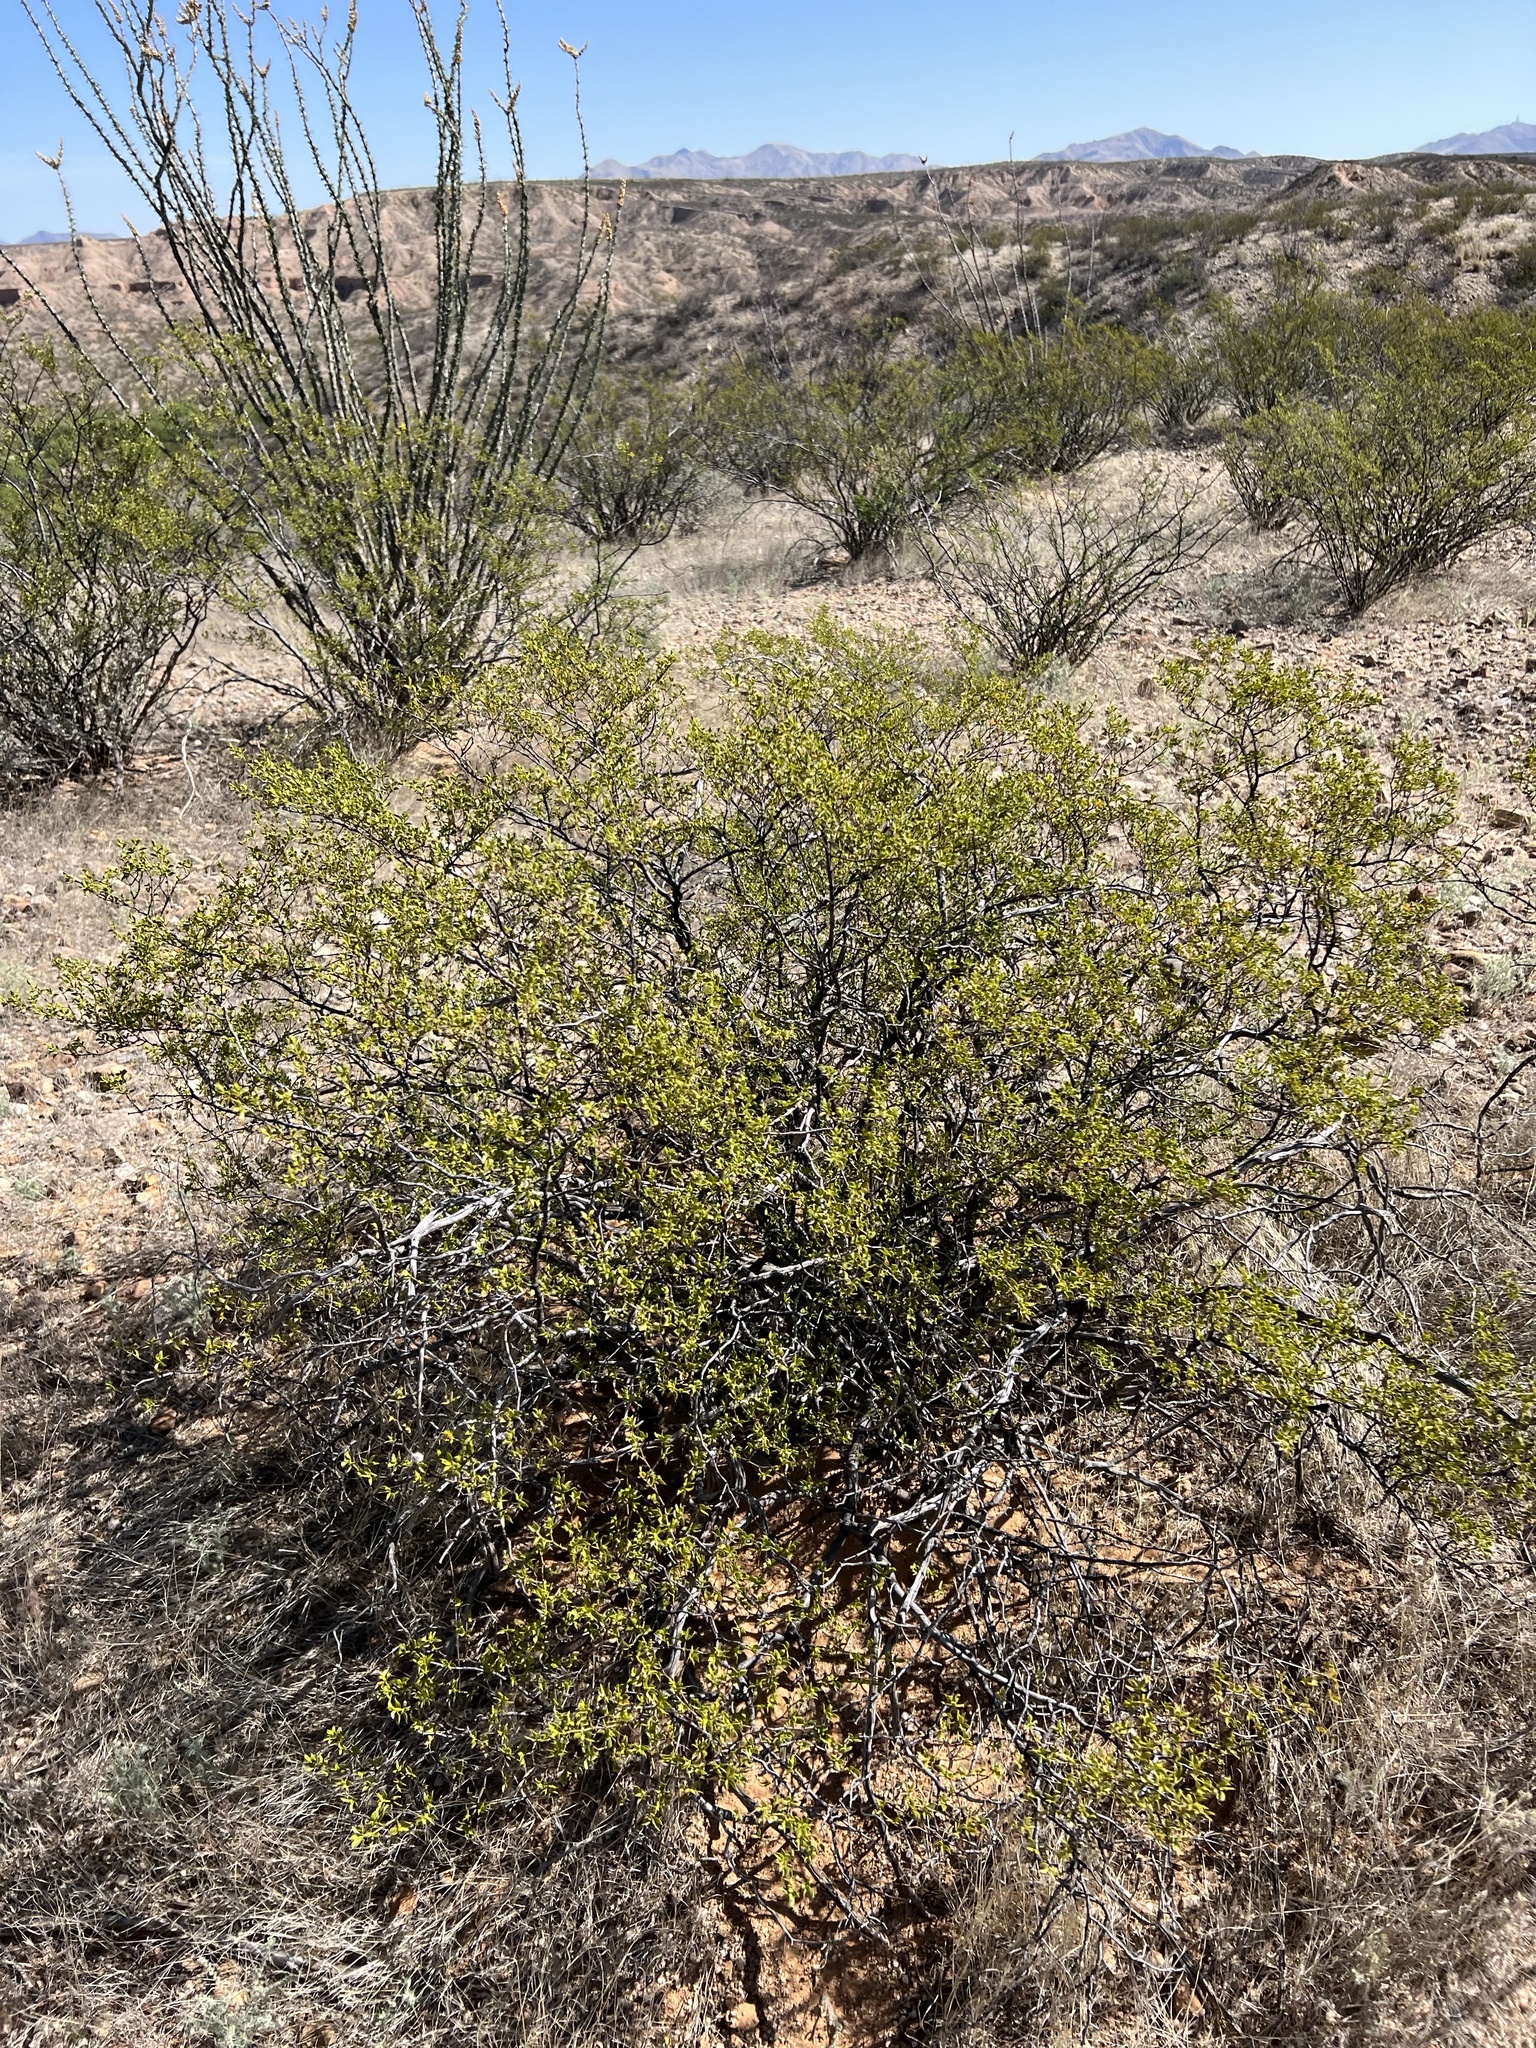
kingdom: Plantae
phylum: Tracheophyta
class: Magnoliopsida
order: Zygophyllales
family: Zygophyllaceae
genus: Larrea
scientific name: Larrea tridentata
